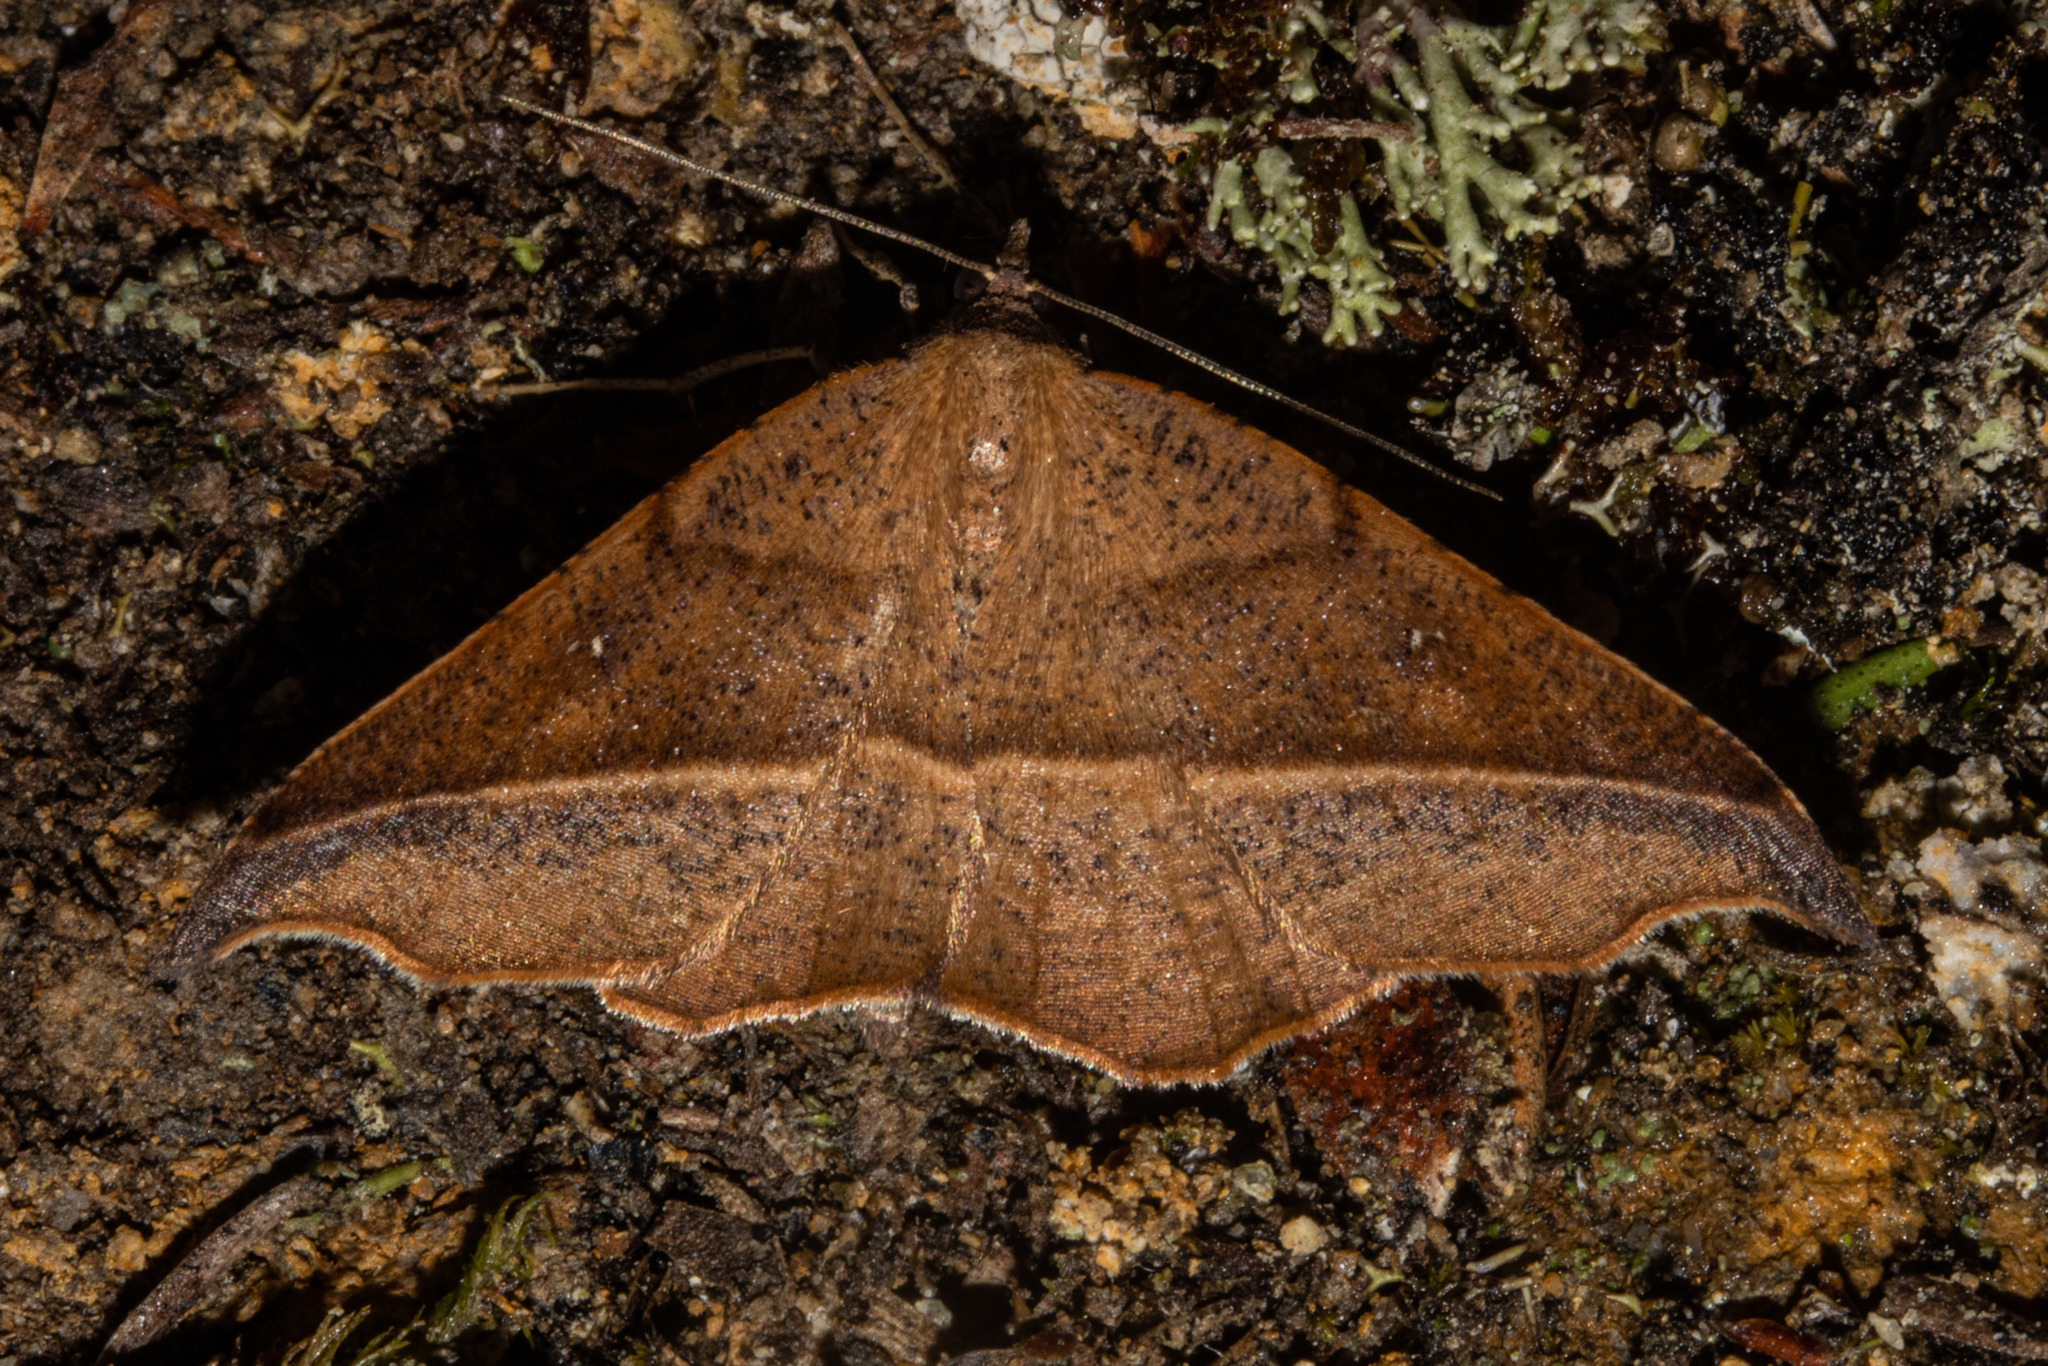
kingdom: Animalia
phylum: Arthropoda
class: Insecta
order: Lepidoptera
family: Geometridae
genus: Sarisa
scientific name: Sarisa muriferata
